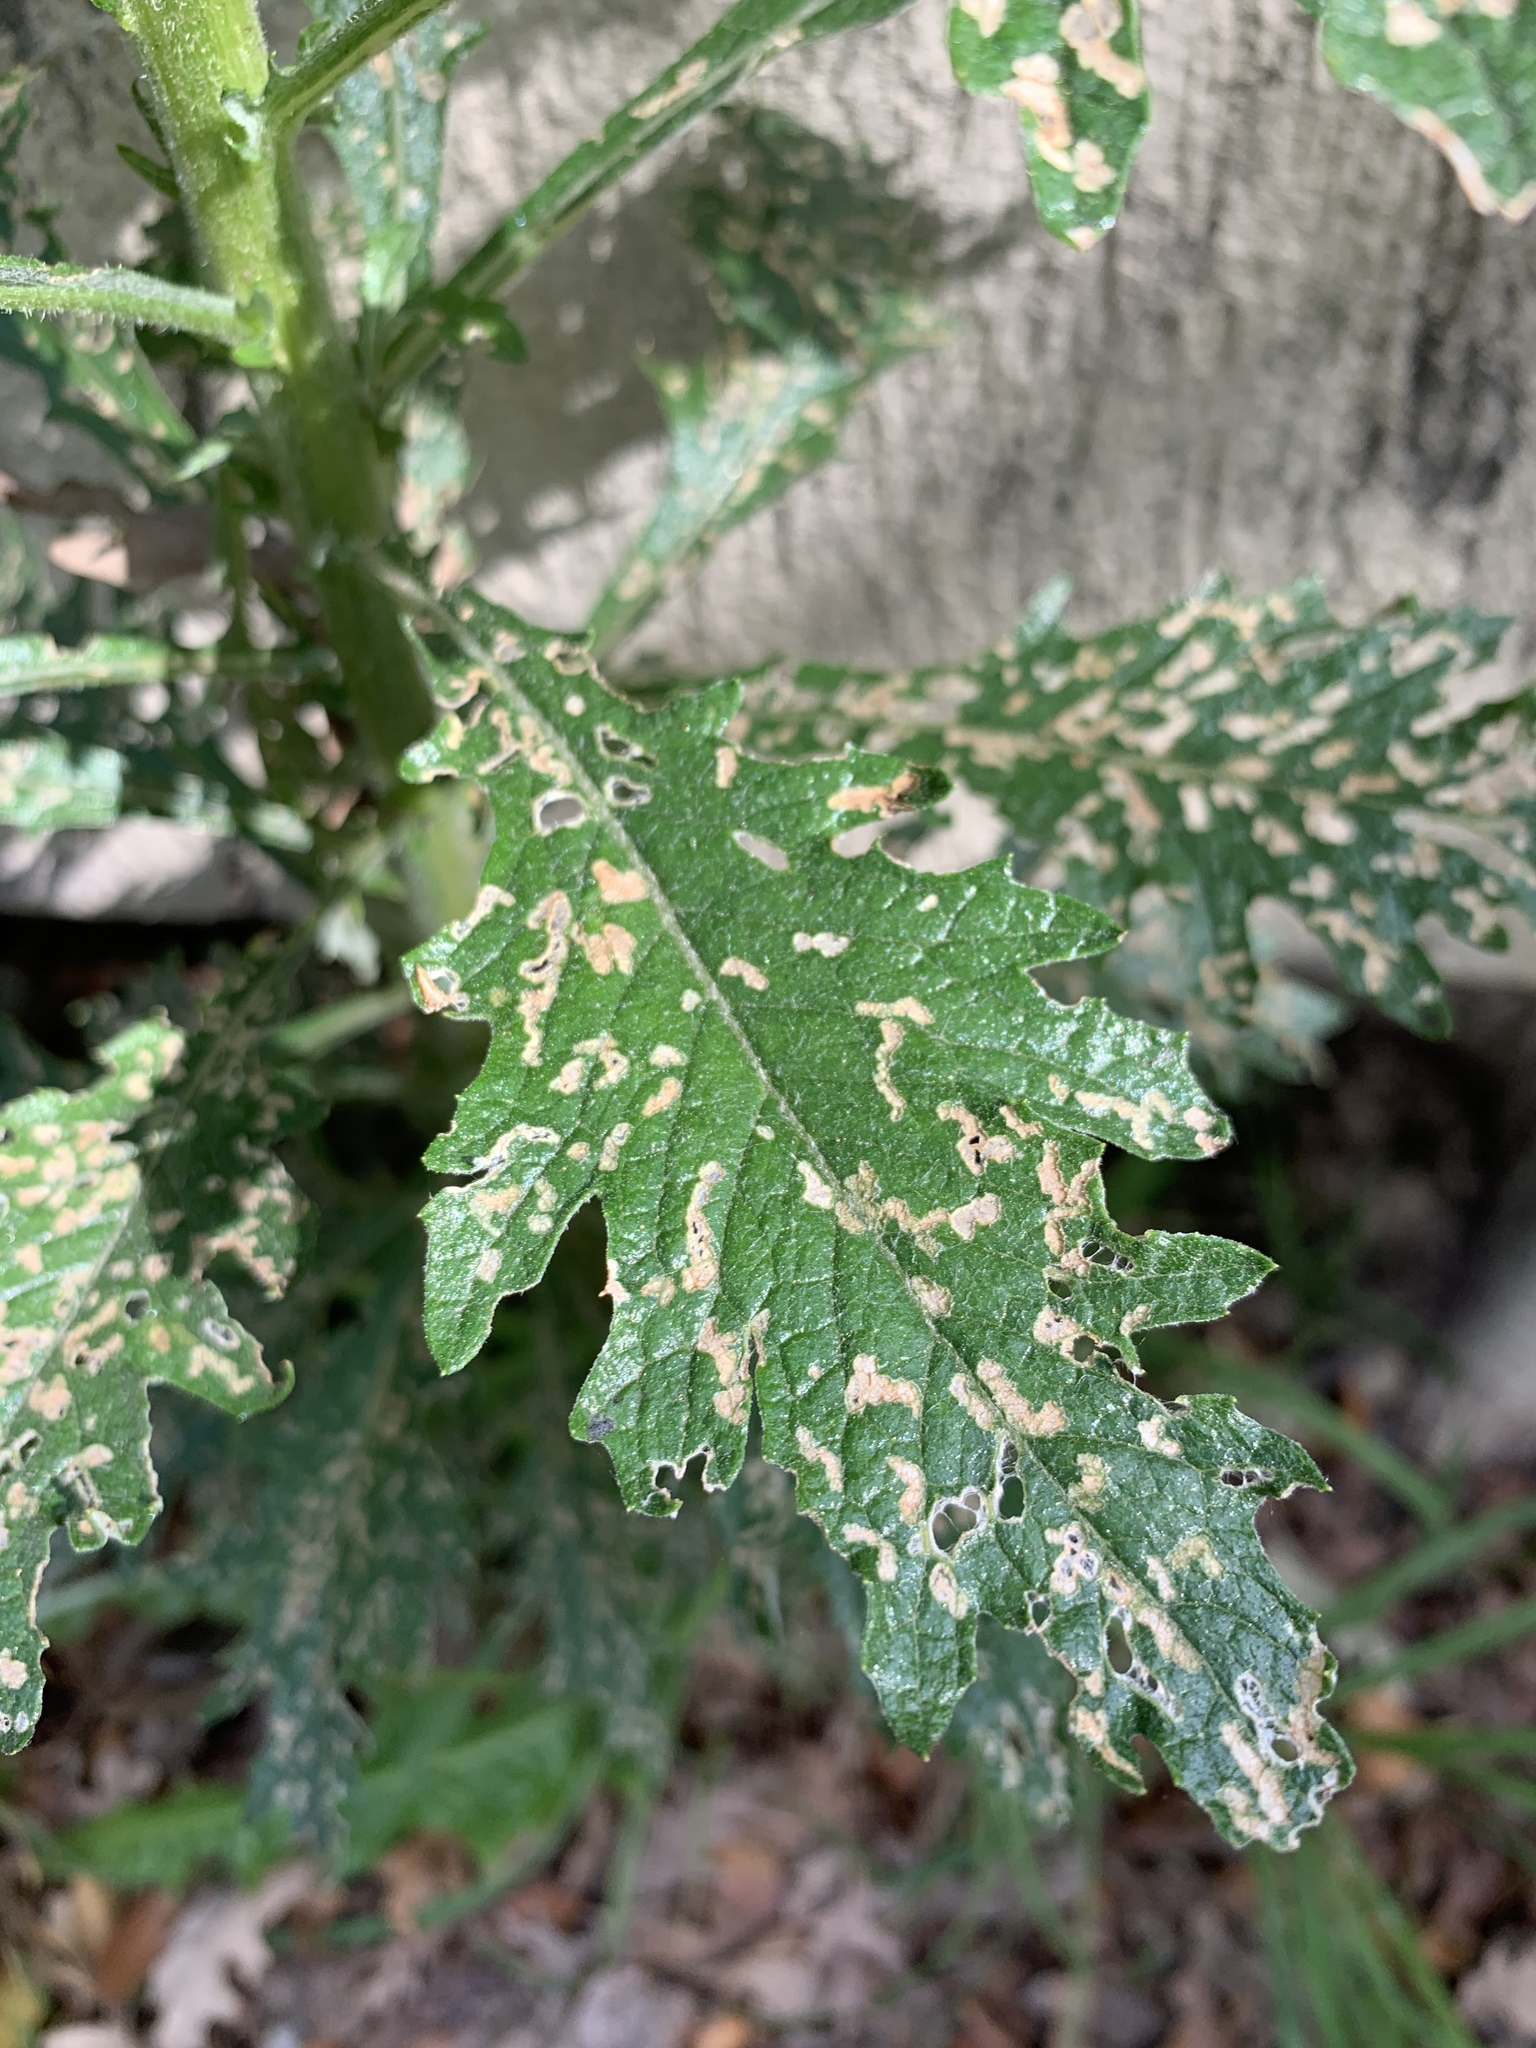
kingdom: Plantae
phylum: Tracheophyta
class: Magnoliopsida
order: Asterales
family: Asteraceae
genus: Senecio
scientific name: Senecio pterophorus
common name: Shoddy ragwort
